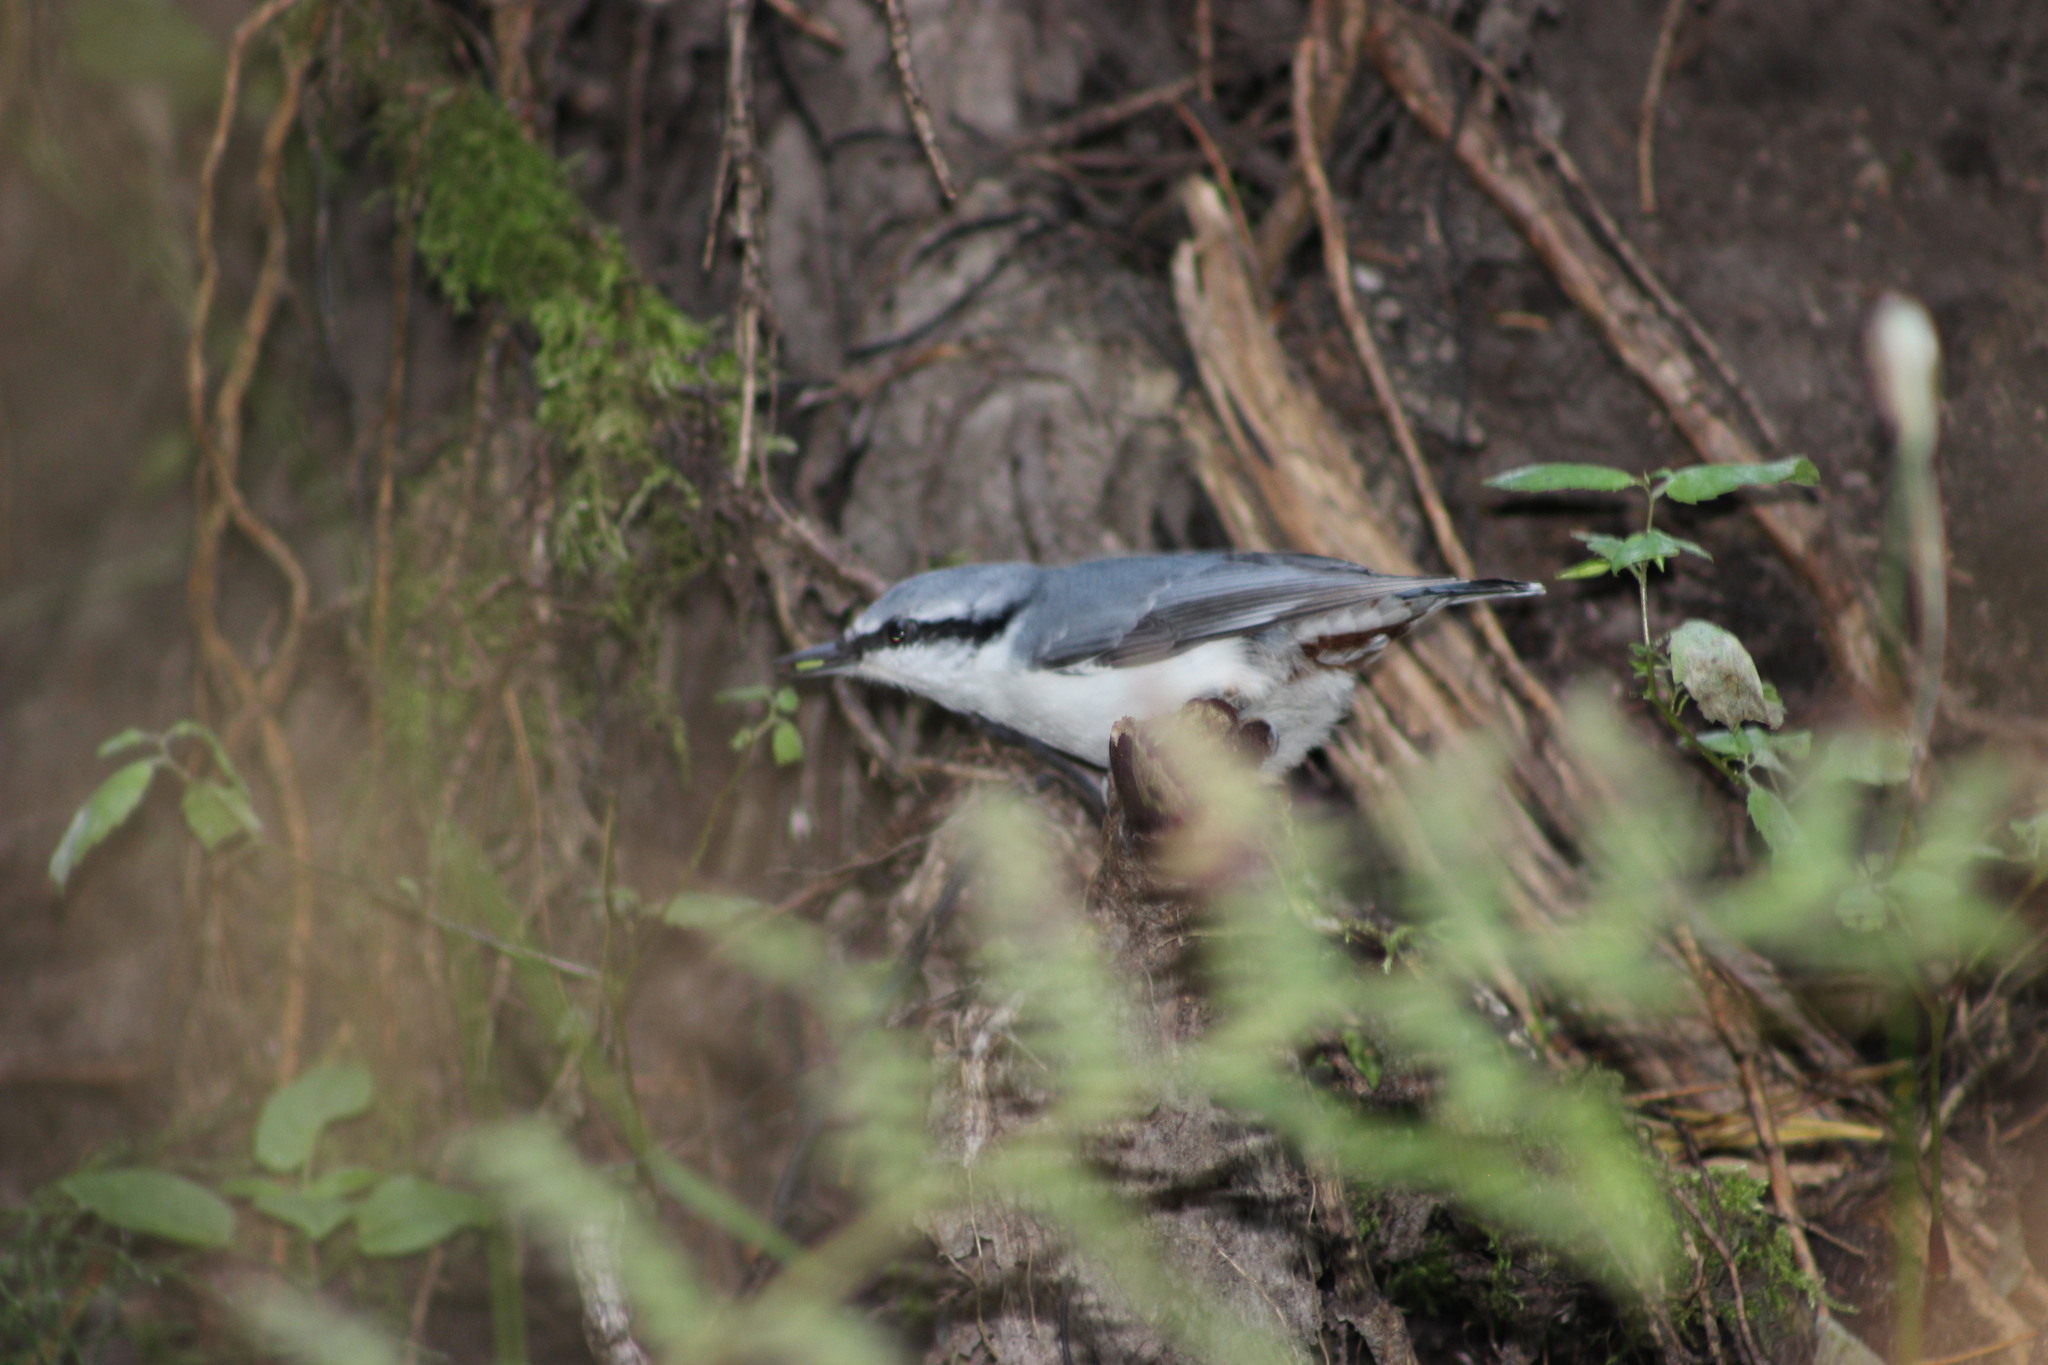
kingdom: Animalia
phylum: Chordata
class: Aves
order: Passeriformes
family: Sittidae
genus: Sitta
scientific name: Sitta europaea
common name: Eurasian nuthatch
